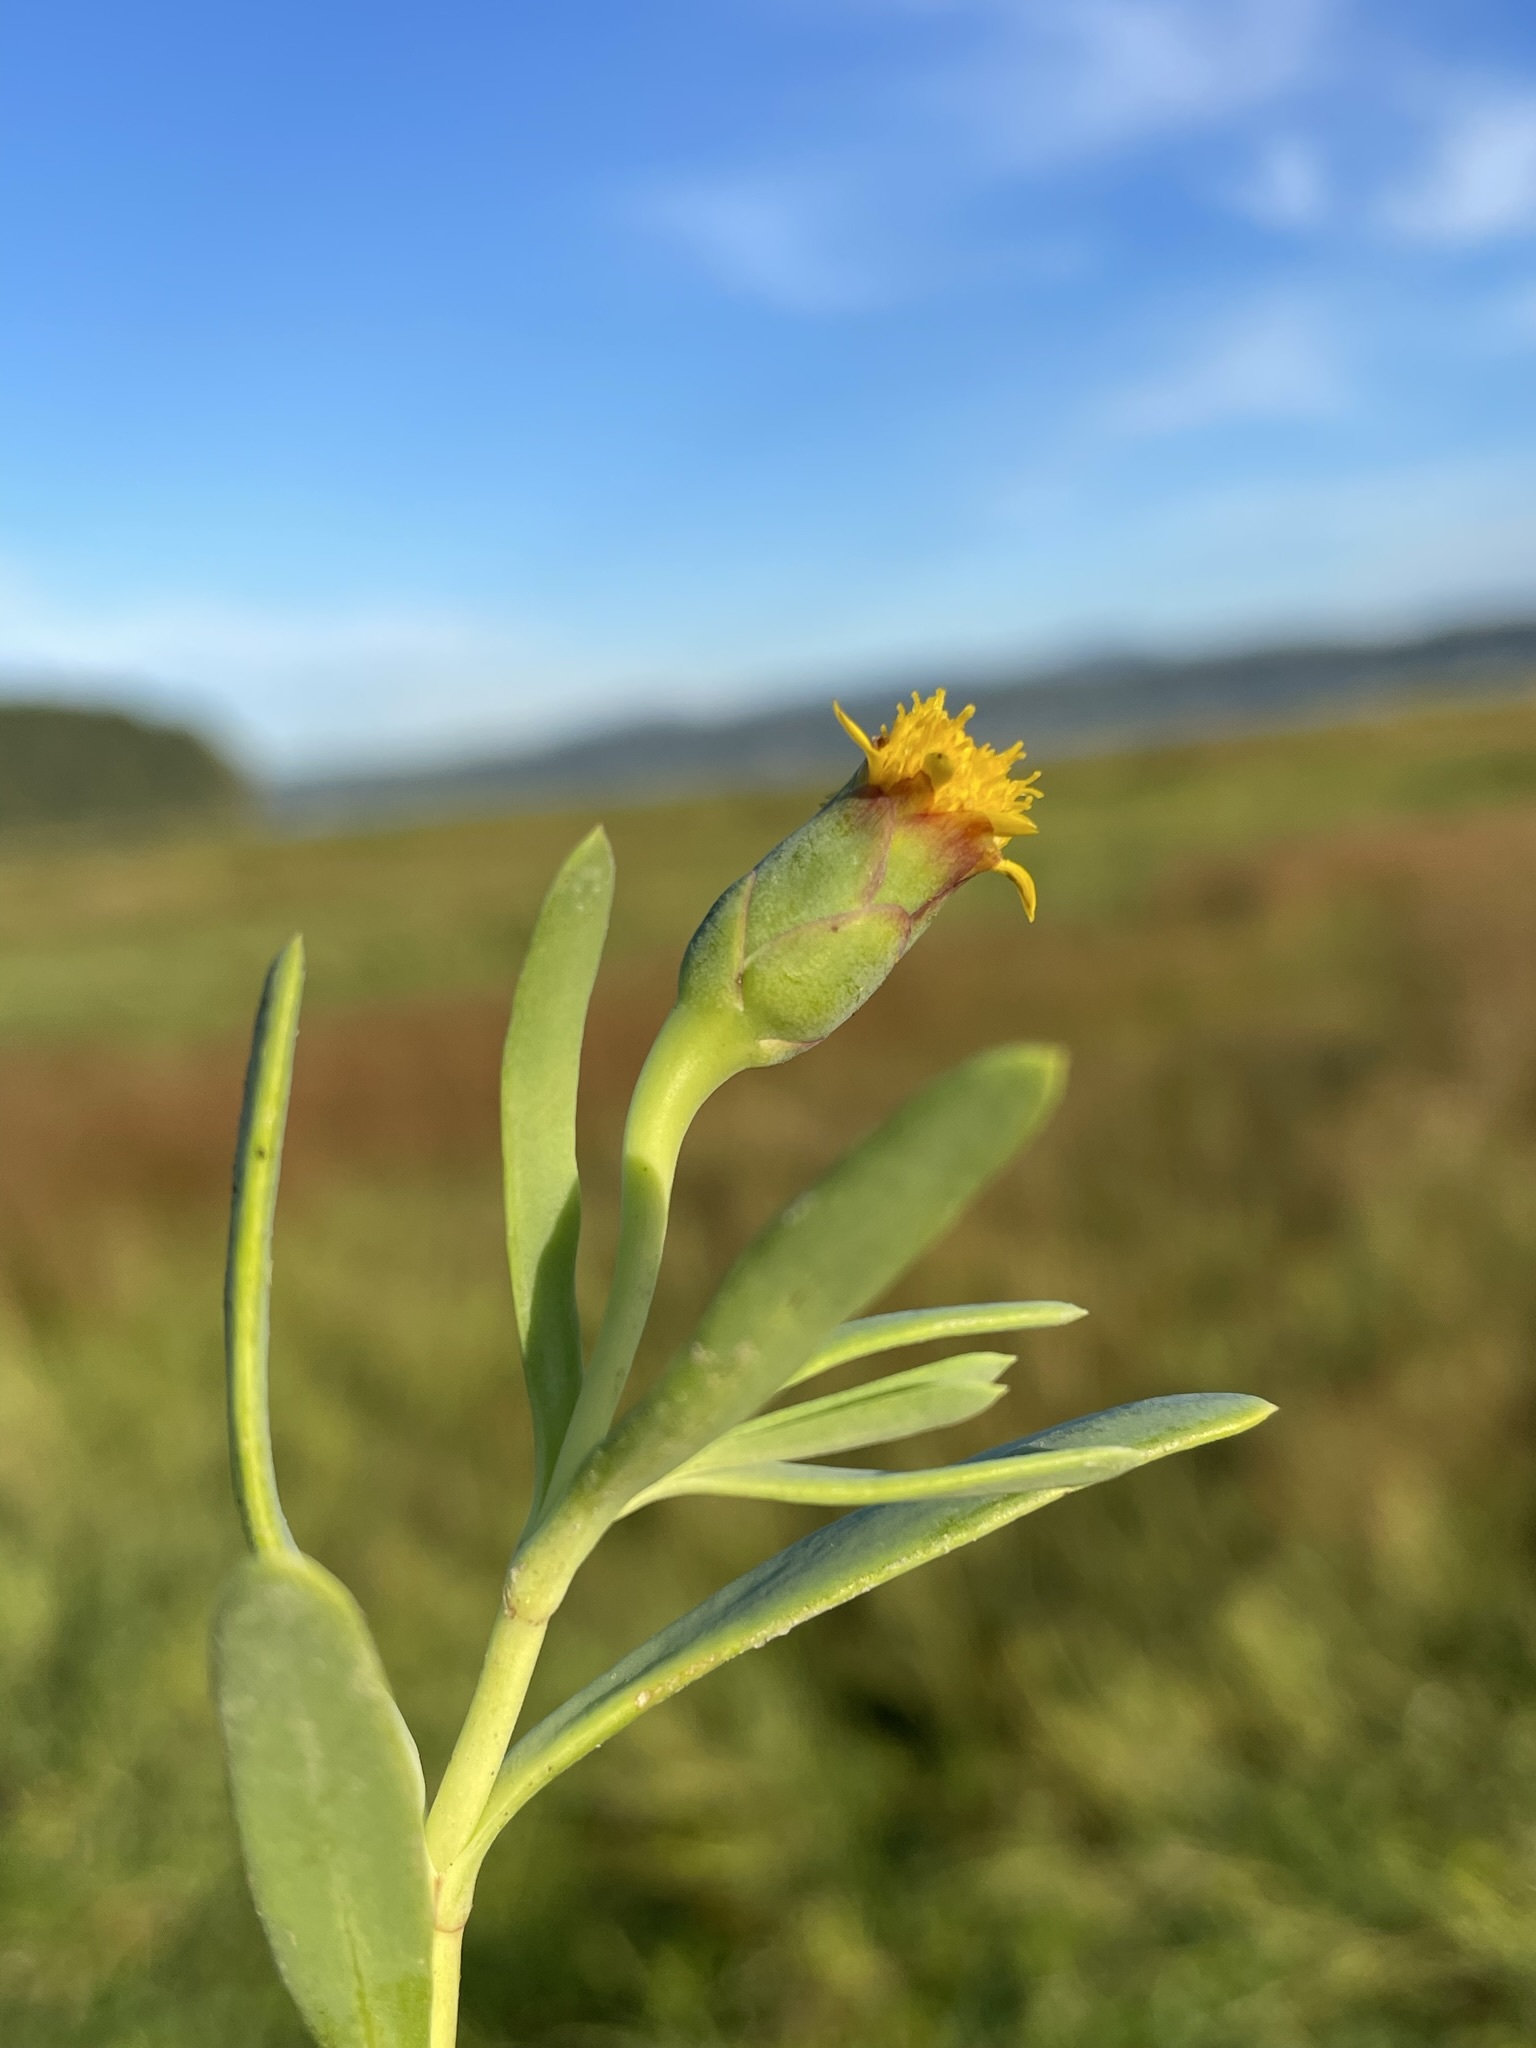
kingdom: Plantae
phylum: Tracheophyta
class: Magnoliopsida
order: Asterales
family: Asteraceae
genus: Jaumea
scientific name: Jaumea carnosa
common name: Fleshy jaumea
